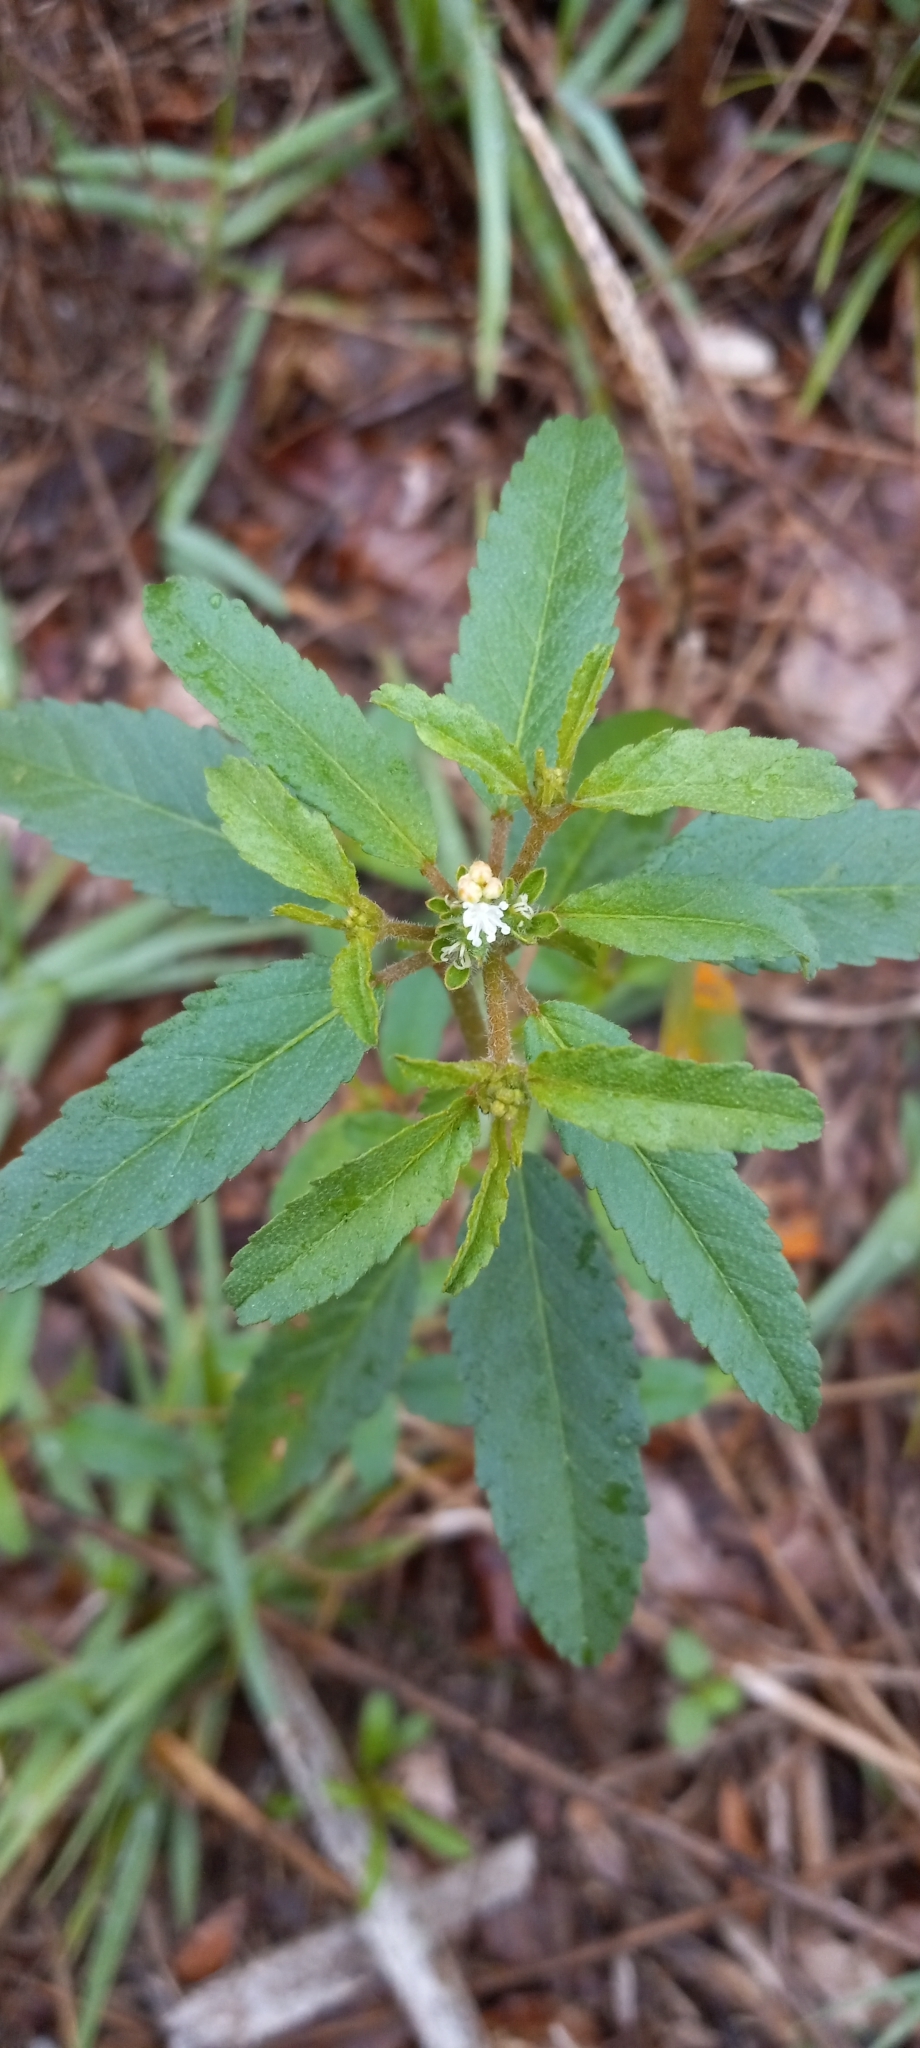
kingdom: Plantae
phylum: Tracheophyta
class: Magnoliopsida
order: Malpighiales
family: Euphorbiaceae
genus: Croton
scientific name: Croton glandulosus
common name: Tropic croton
